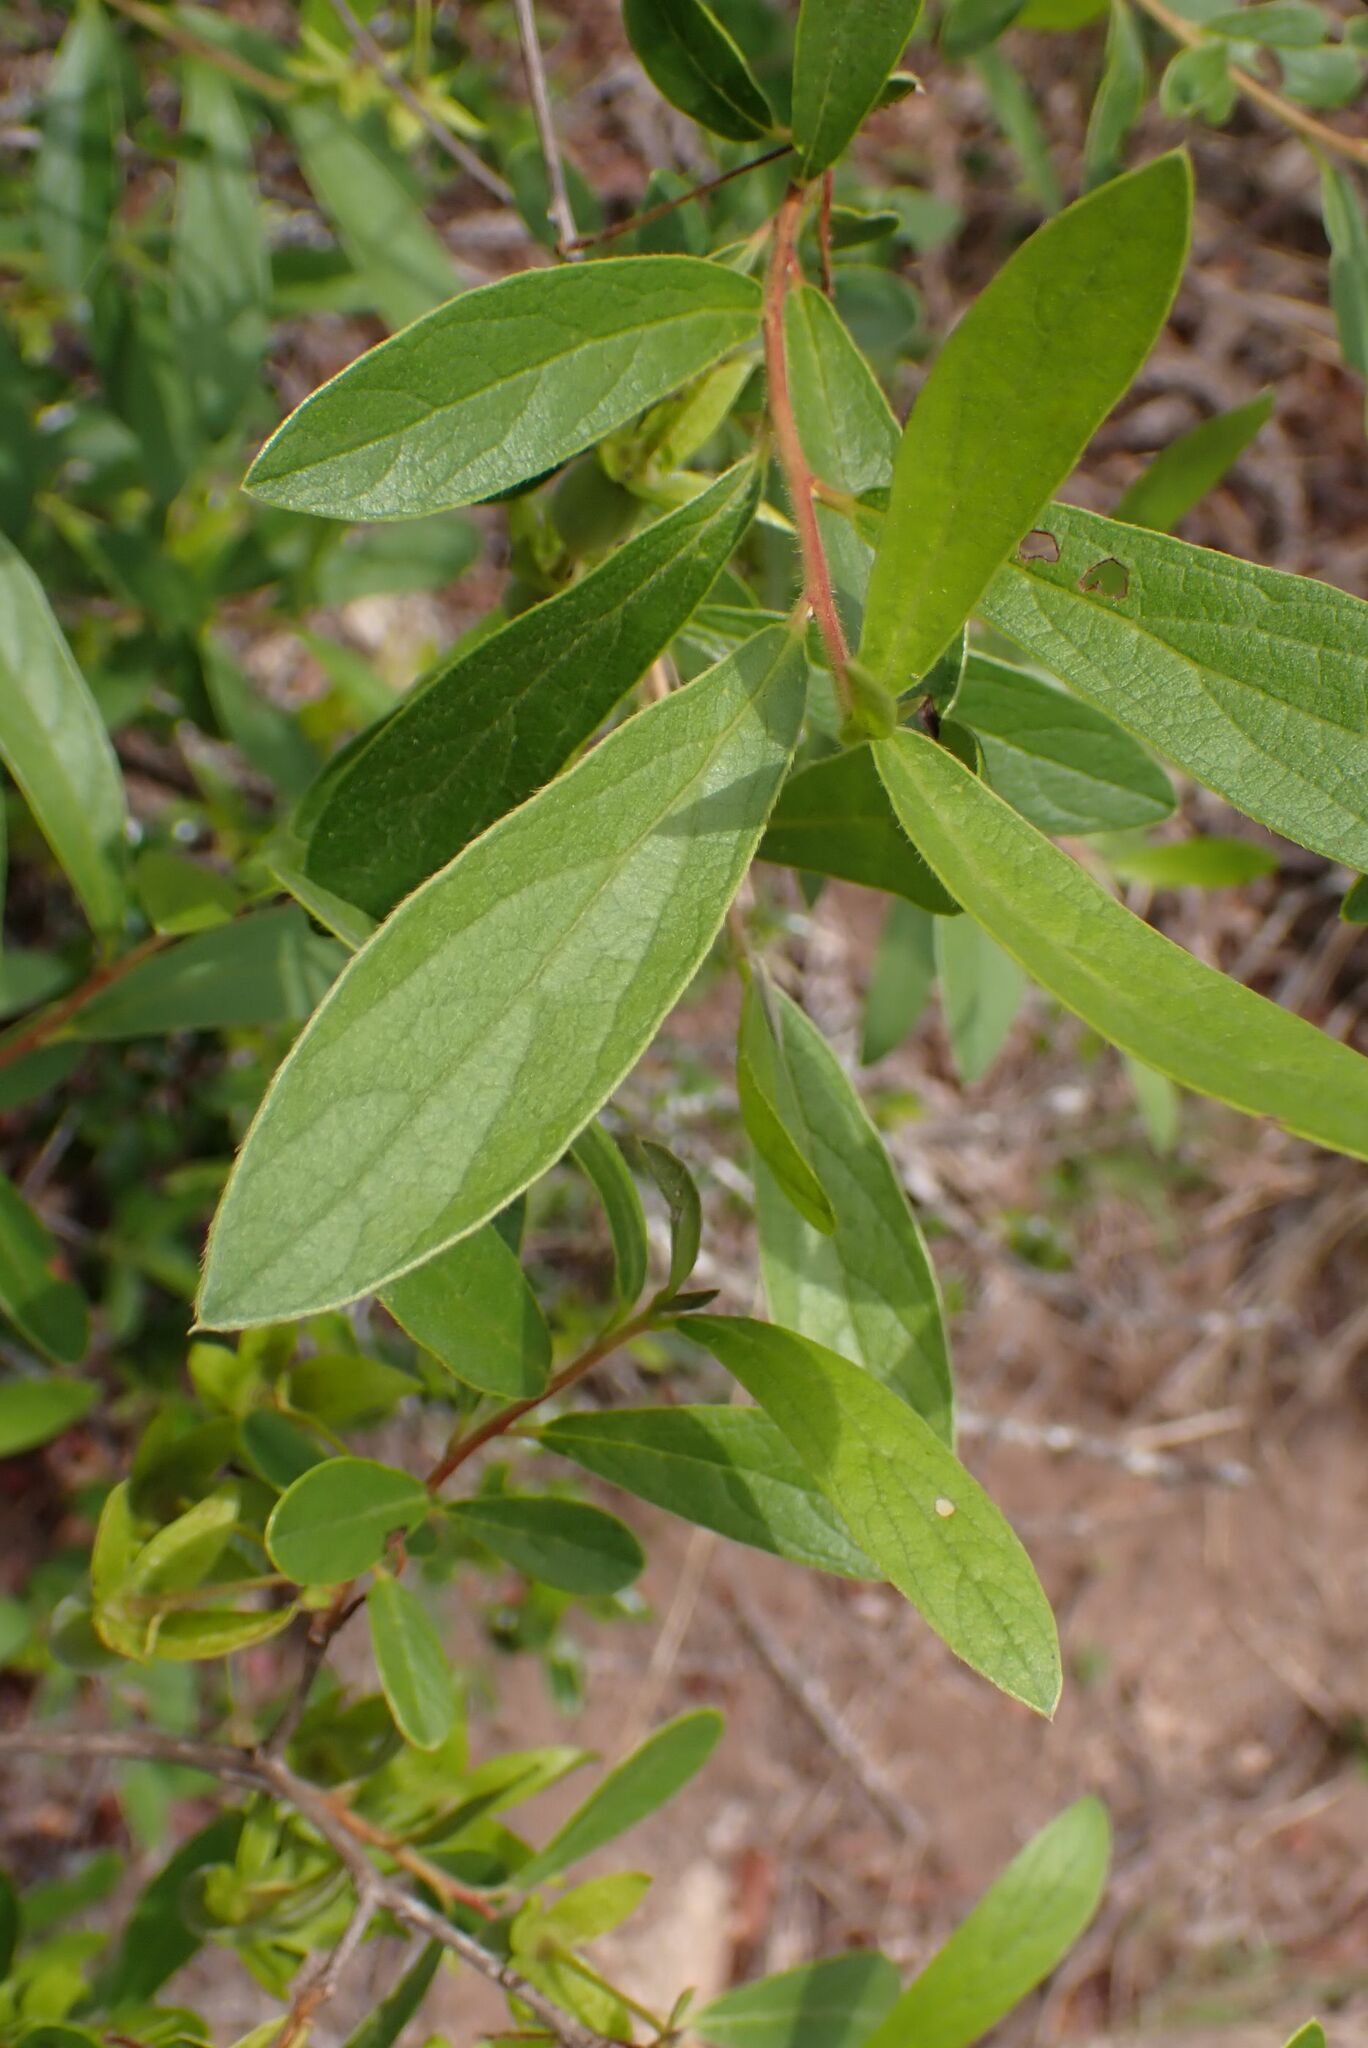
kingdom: Plantae
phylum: Tracheophyta
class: Magnoliopsida
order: Ericales
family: Ebenaceae
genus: Diospyros
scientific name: Diospyros lycioides
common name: Red star apple
